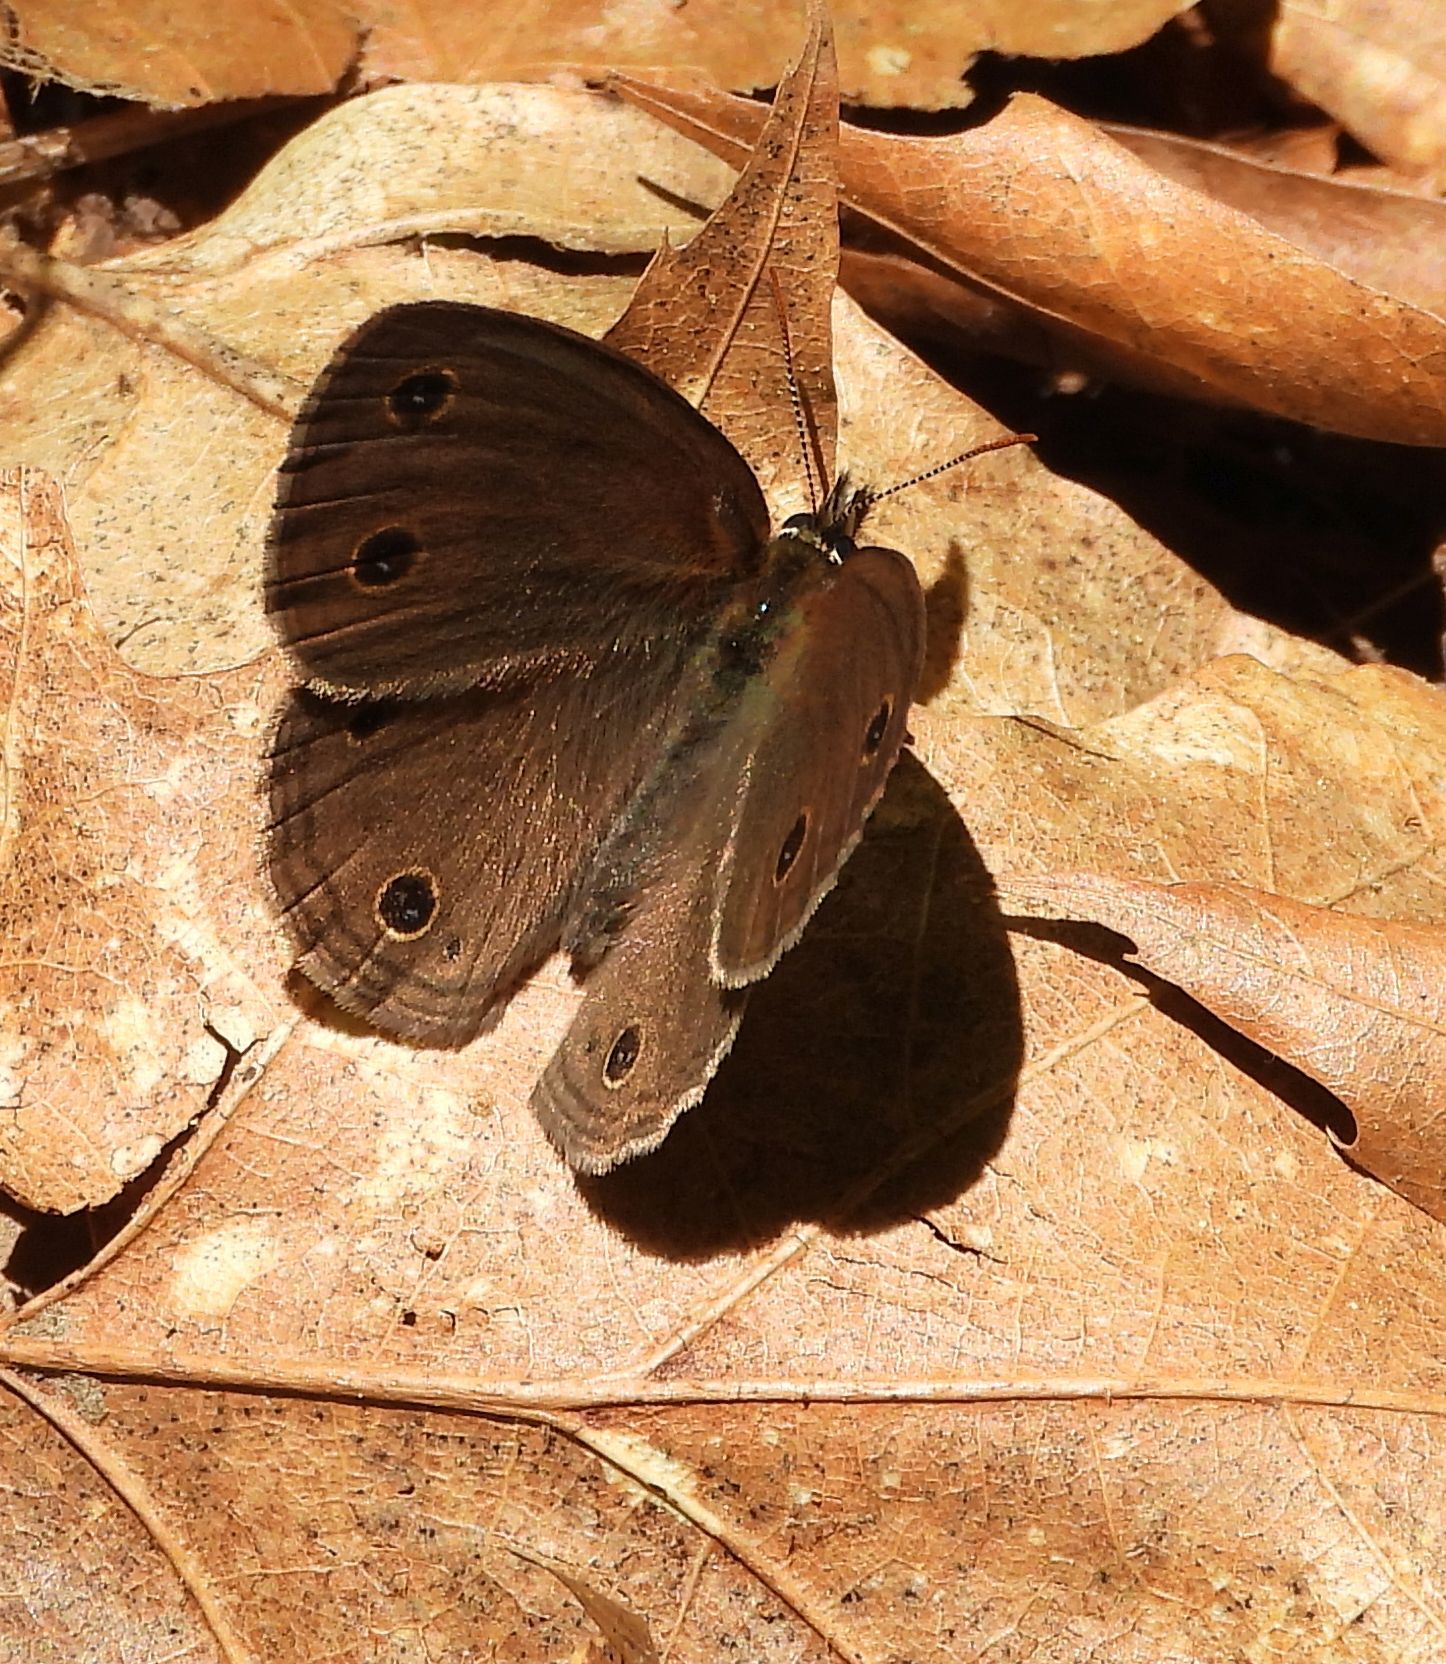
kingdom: Animalia
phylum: Arthropoda
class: Insecta
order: Lepidoptera
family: Nymphalidae
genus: Euptychia
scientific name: Euptychia cymela
